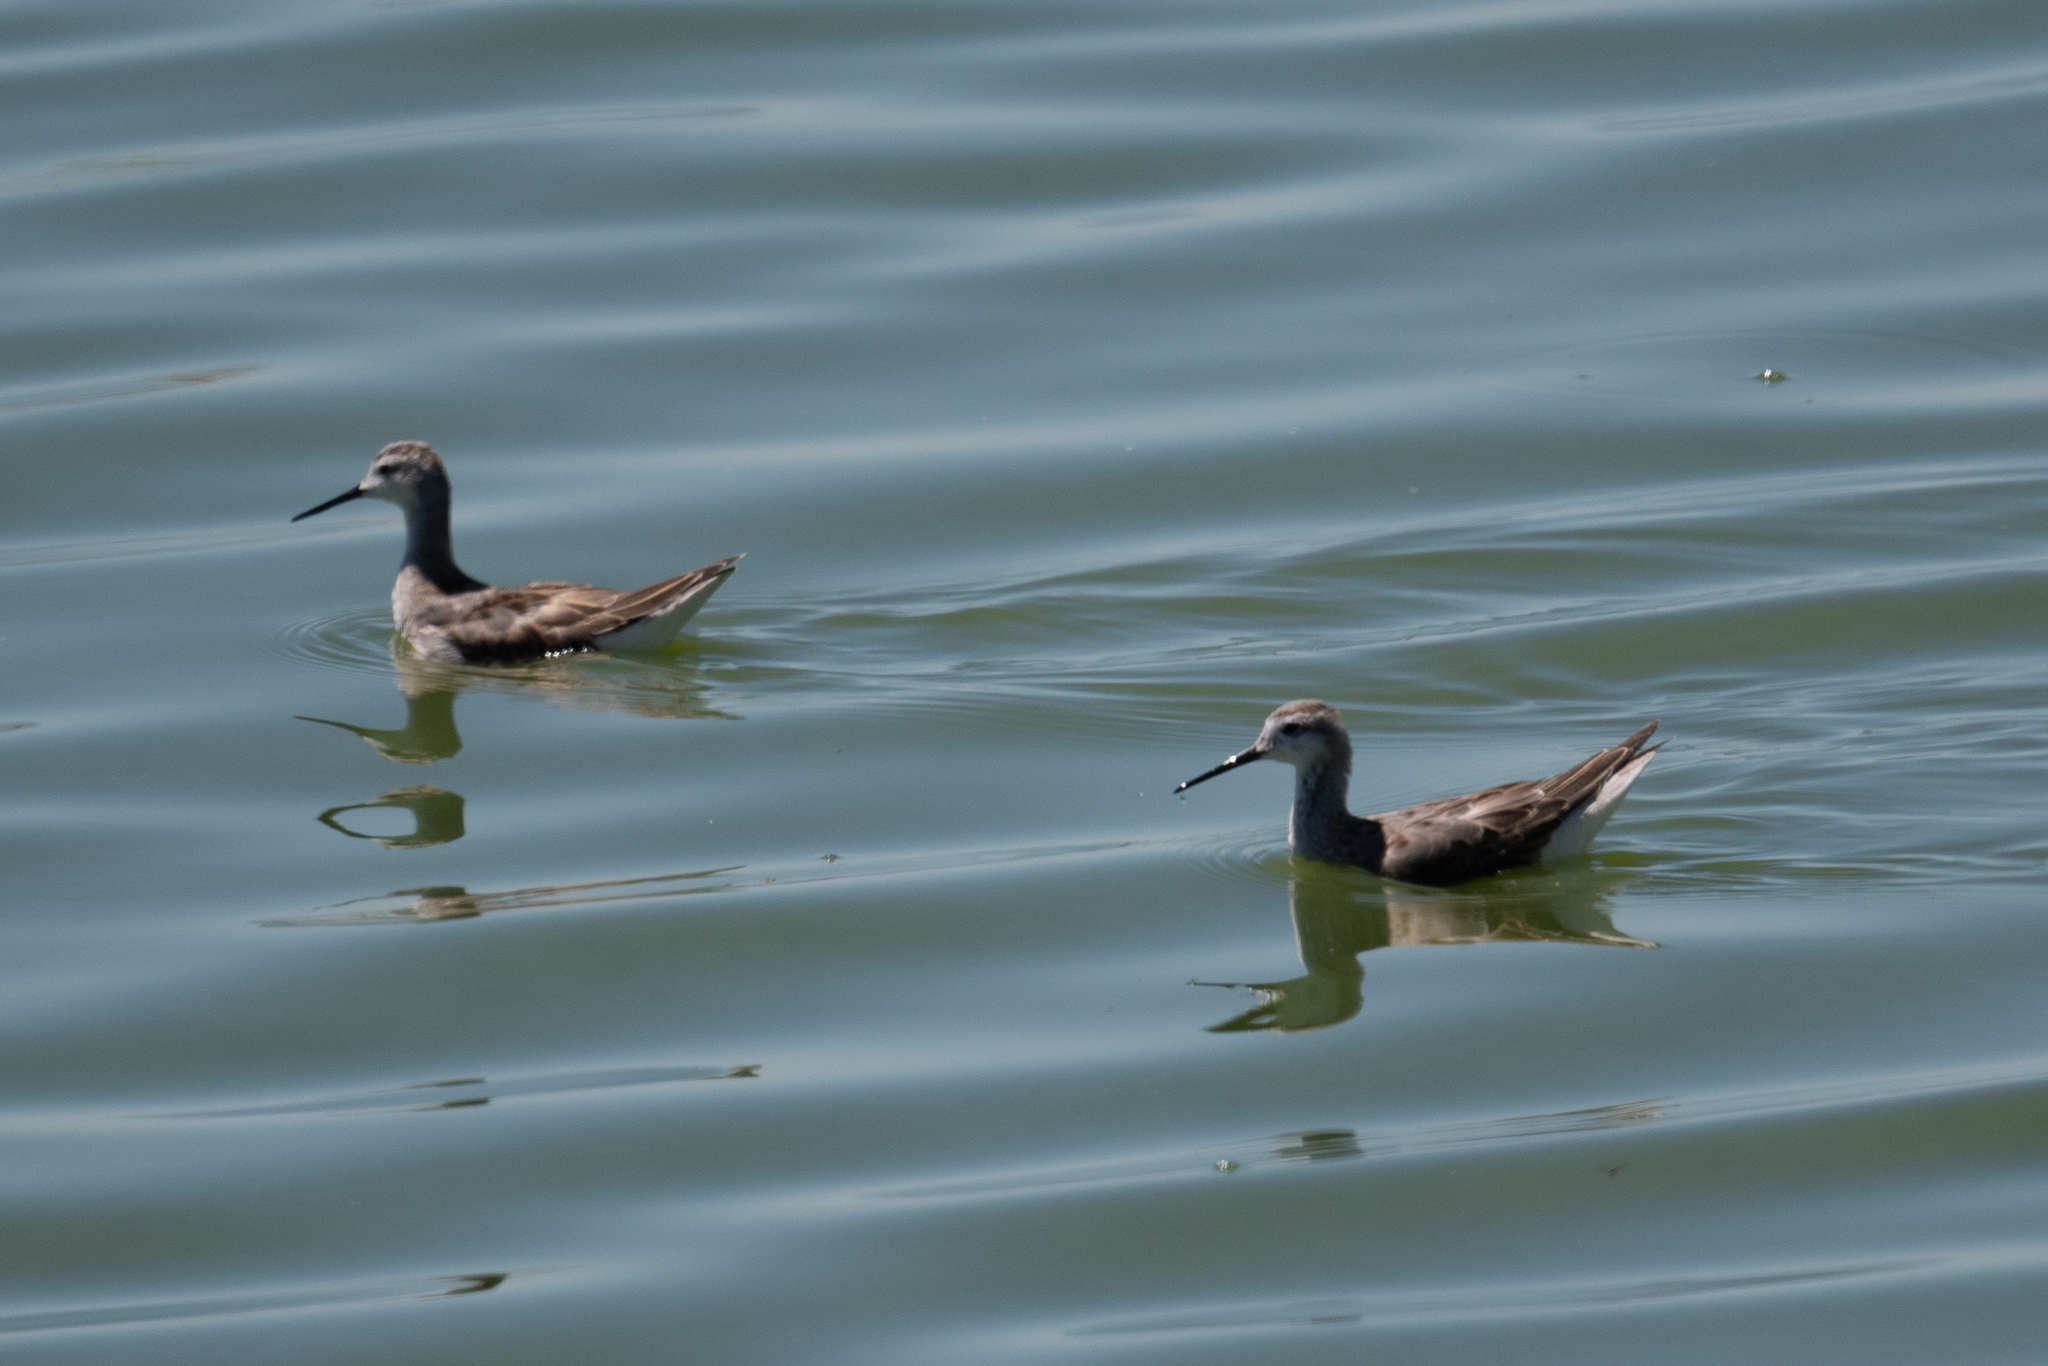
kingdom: Animalia
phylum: Chordata
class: Aves
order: Charadriiformes
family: Scolopacidae
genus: Phalaropus
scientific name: Phalaropus tricolor
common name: Wilson's phalarope
